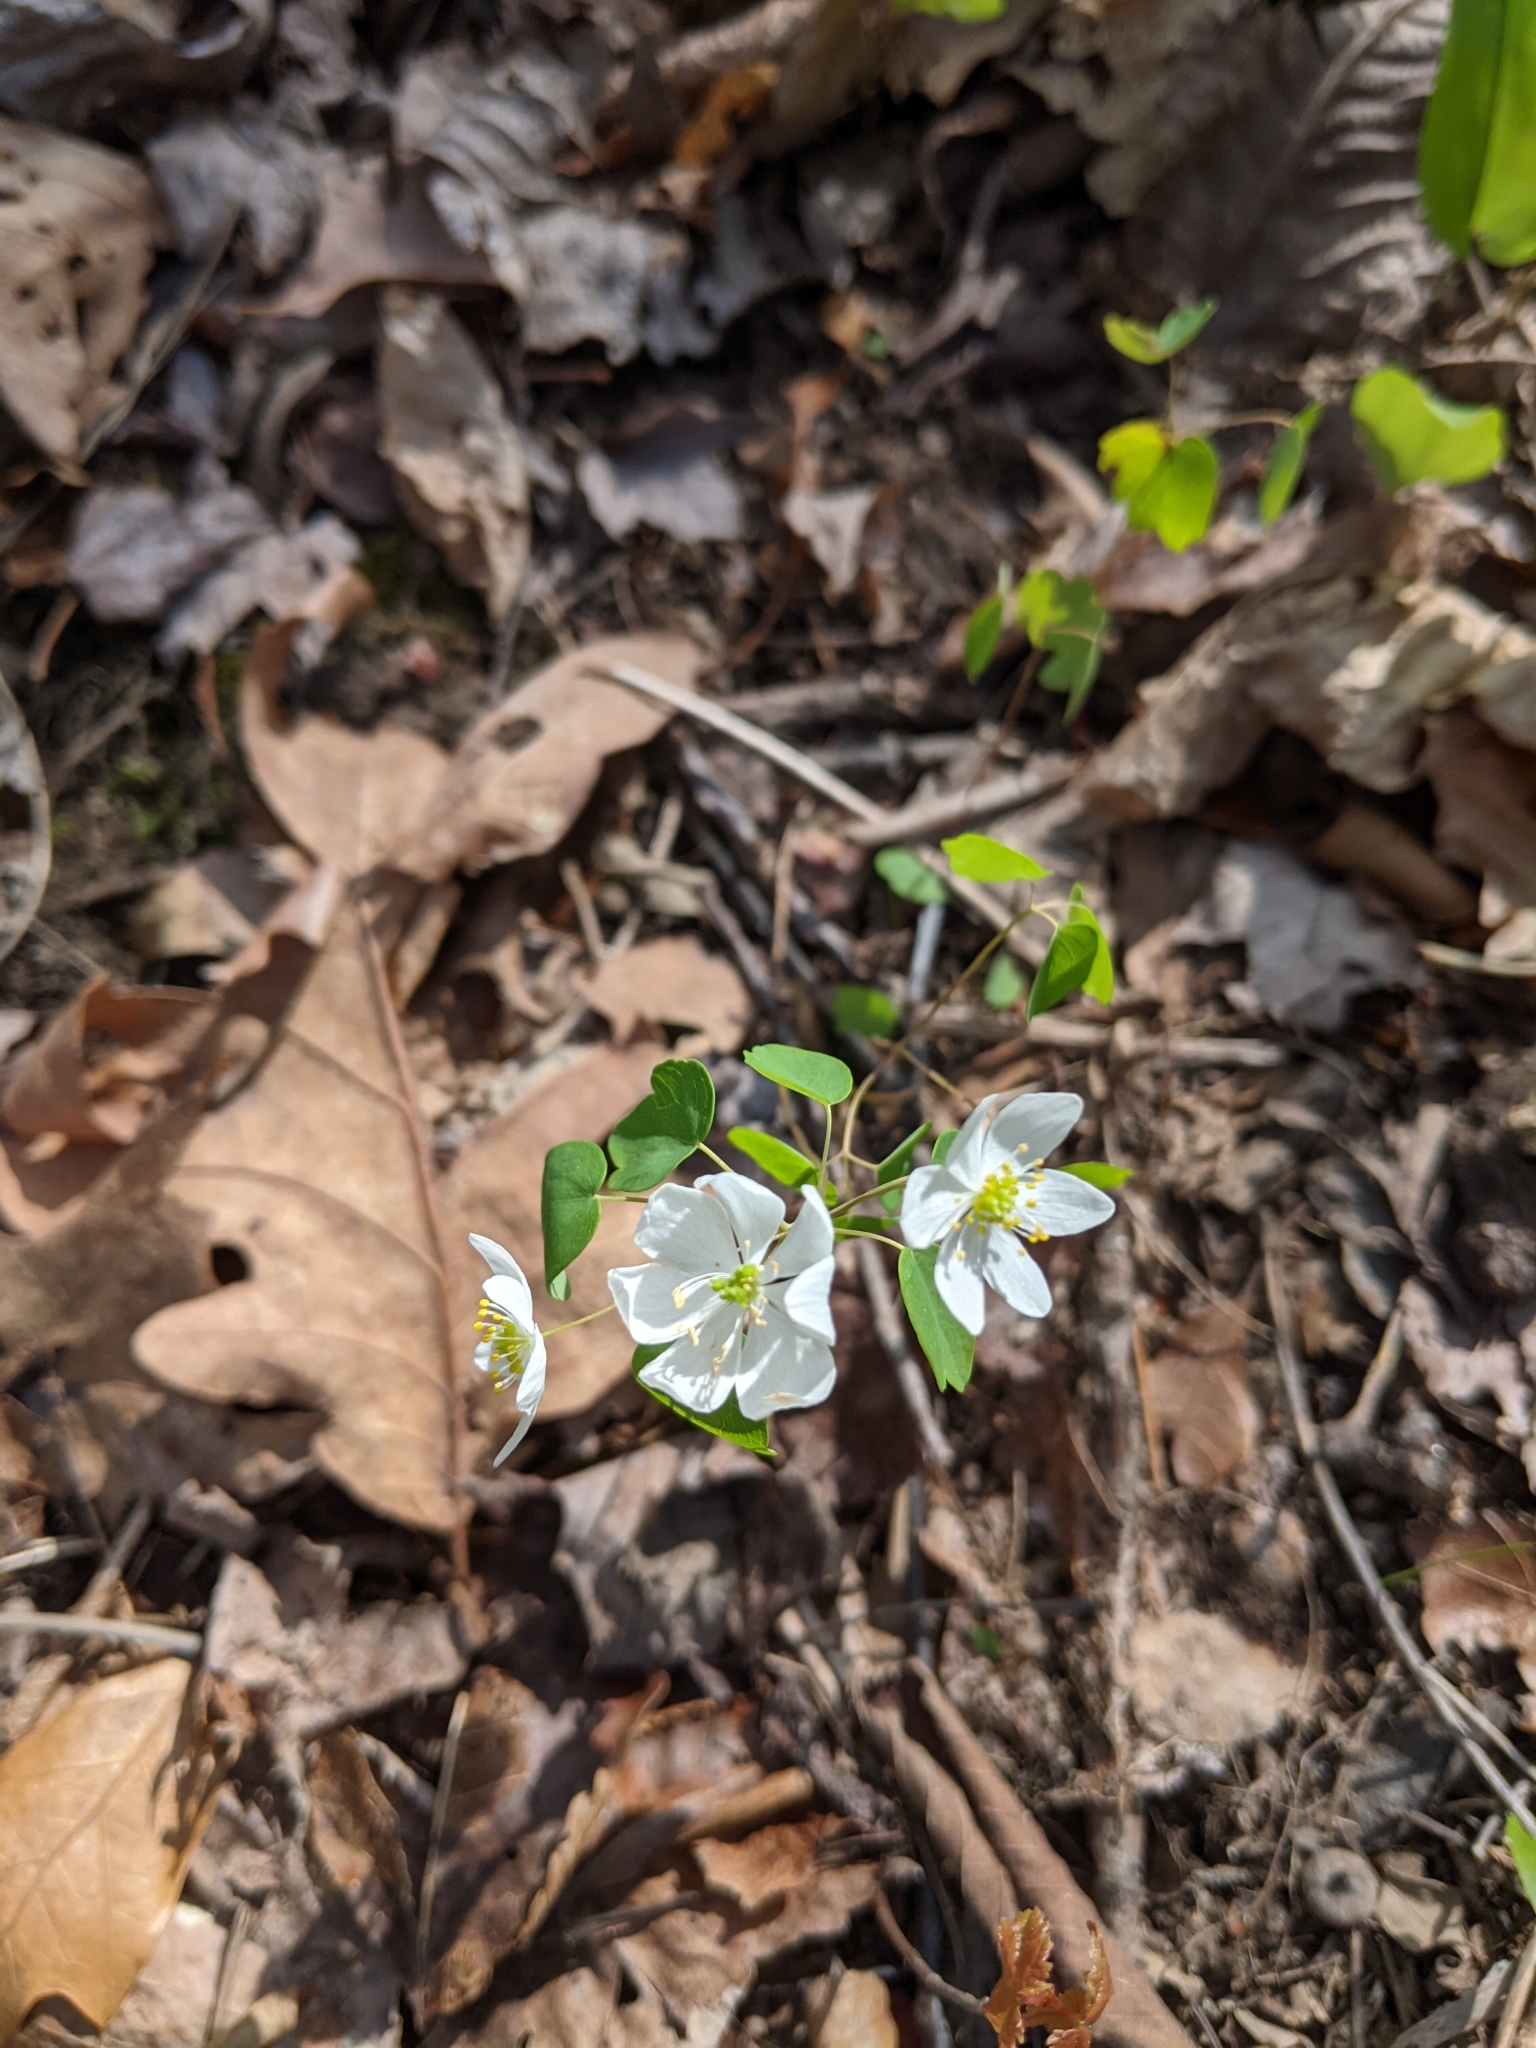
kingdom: Plantae
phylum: Tracheophyta
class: Magnoliopsida
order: Ranunculales
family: Ranunculaceae
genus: Thalictrum
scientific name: Thalictrum thalictroides
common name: Rue-anemone
